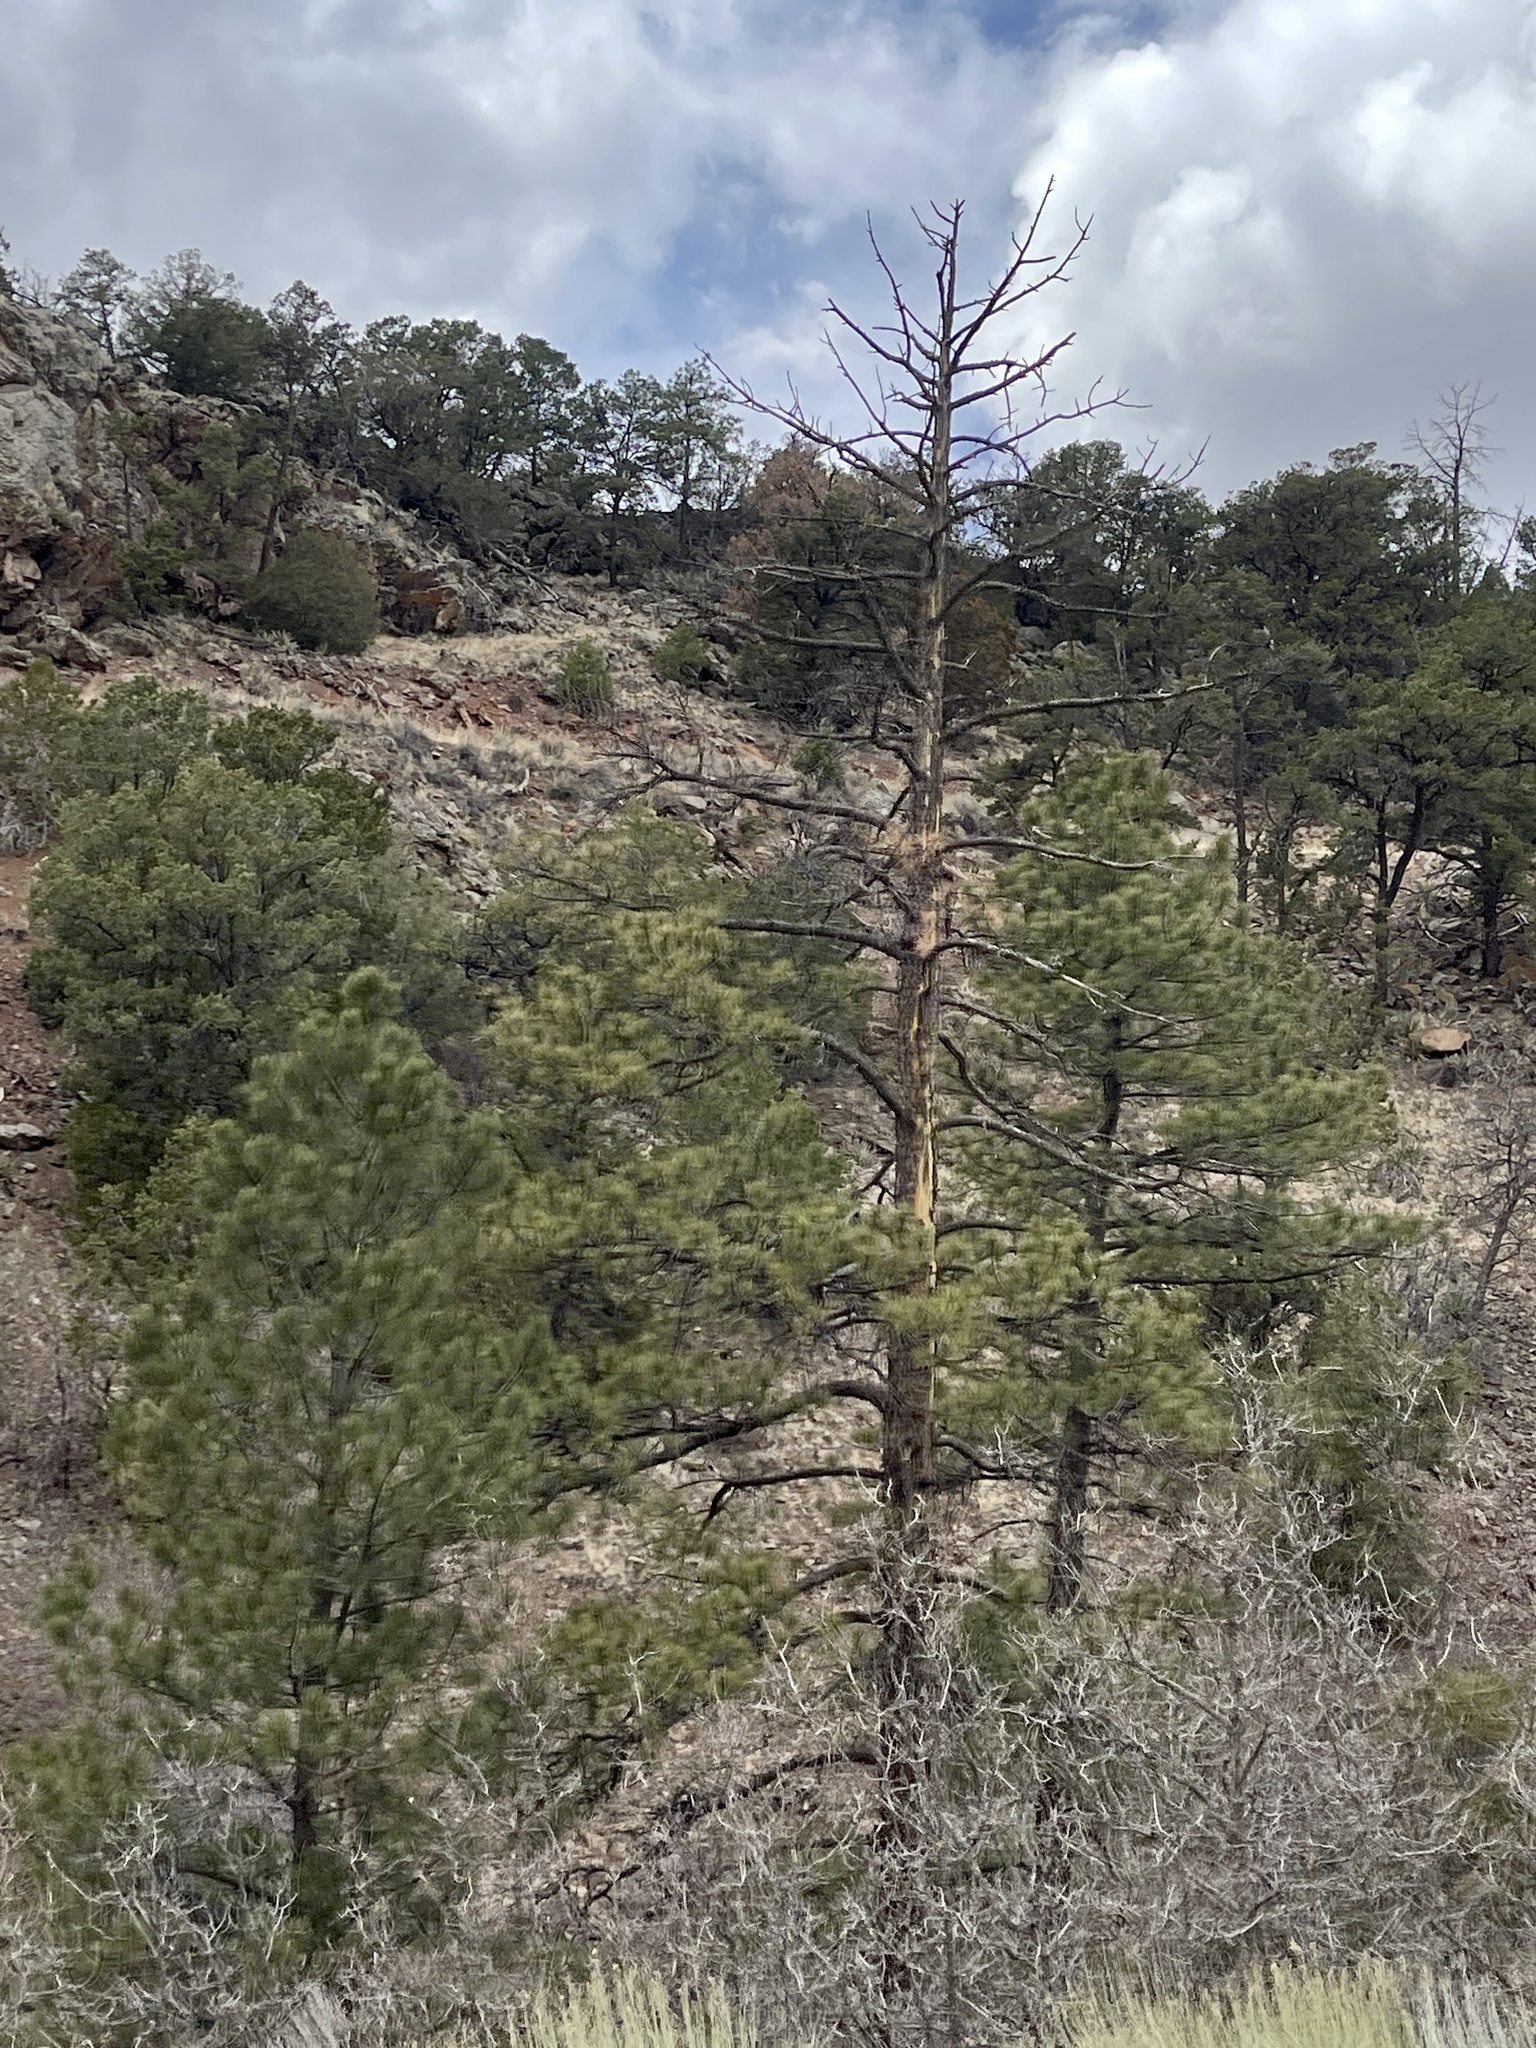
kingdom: Plantae
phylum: Tracheophyta
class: Pinopsida
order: Pinales
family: Pinaceae
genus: Pinus
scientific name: Pinus ponderosa
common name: Western yellow-pine
